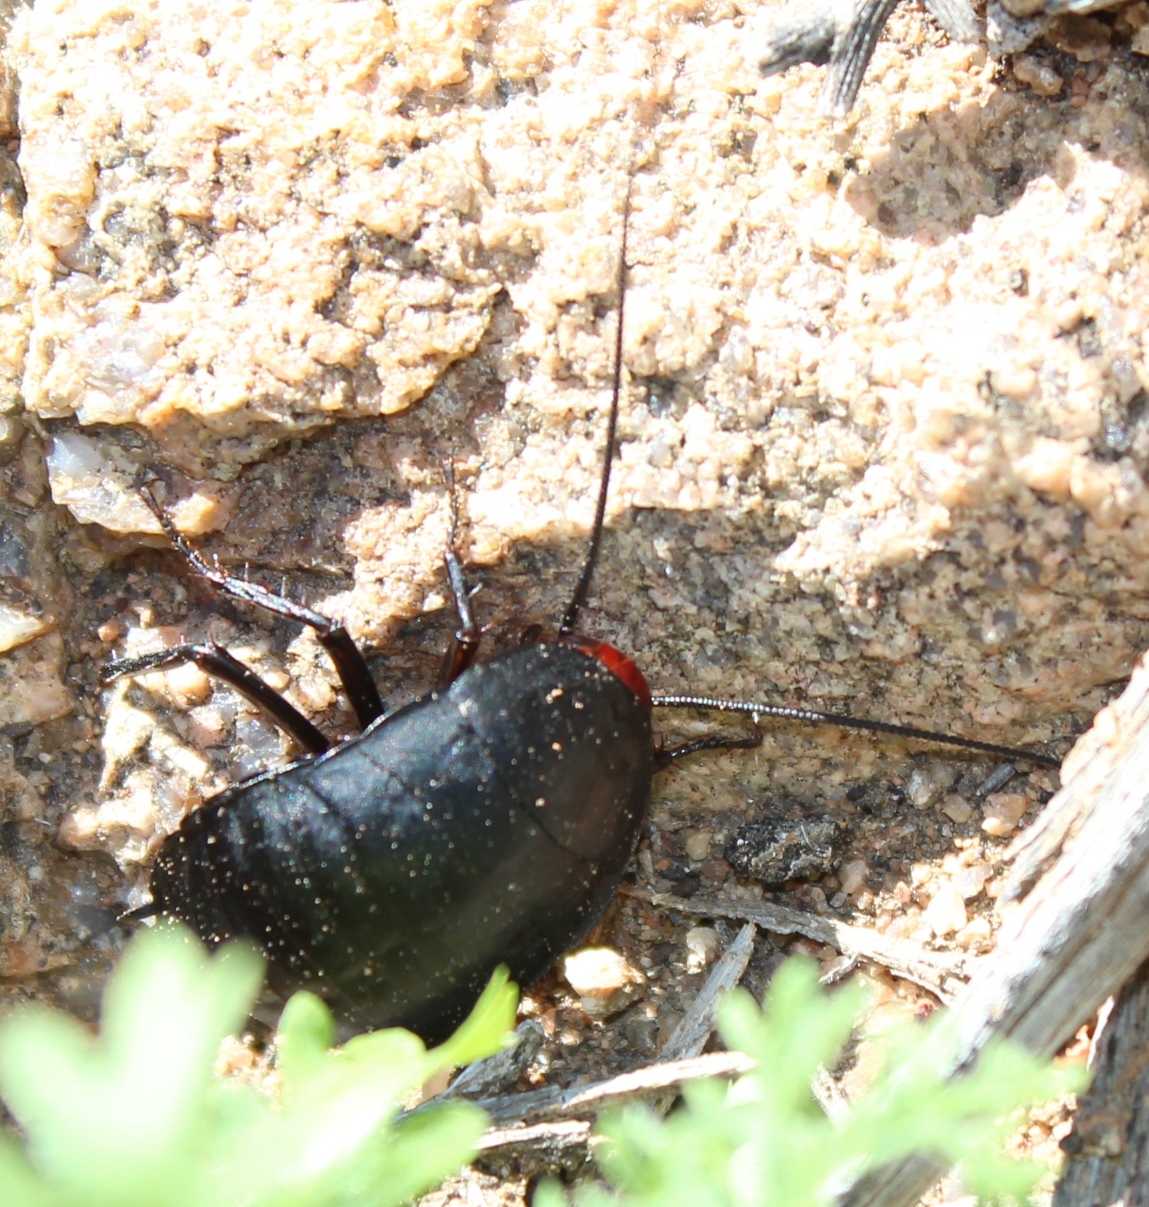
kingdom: Animalia
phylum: Arthropoda
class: Insecta
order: Blattodea
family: Blattidae
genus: Deropeltis
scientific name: Deropeltis erythrocephala
